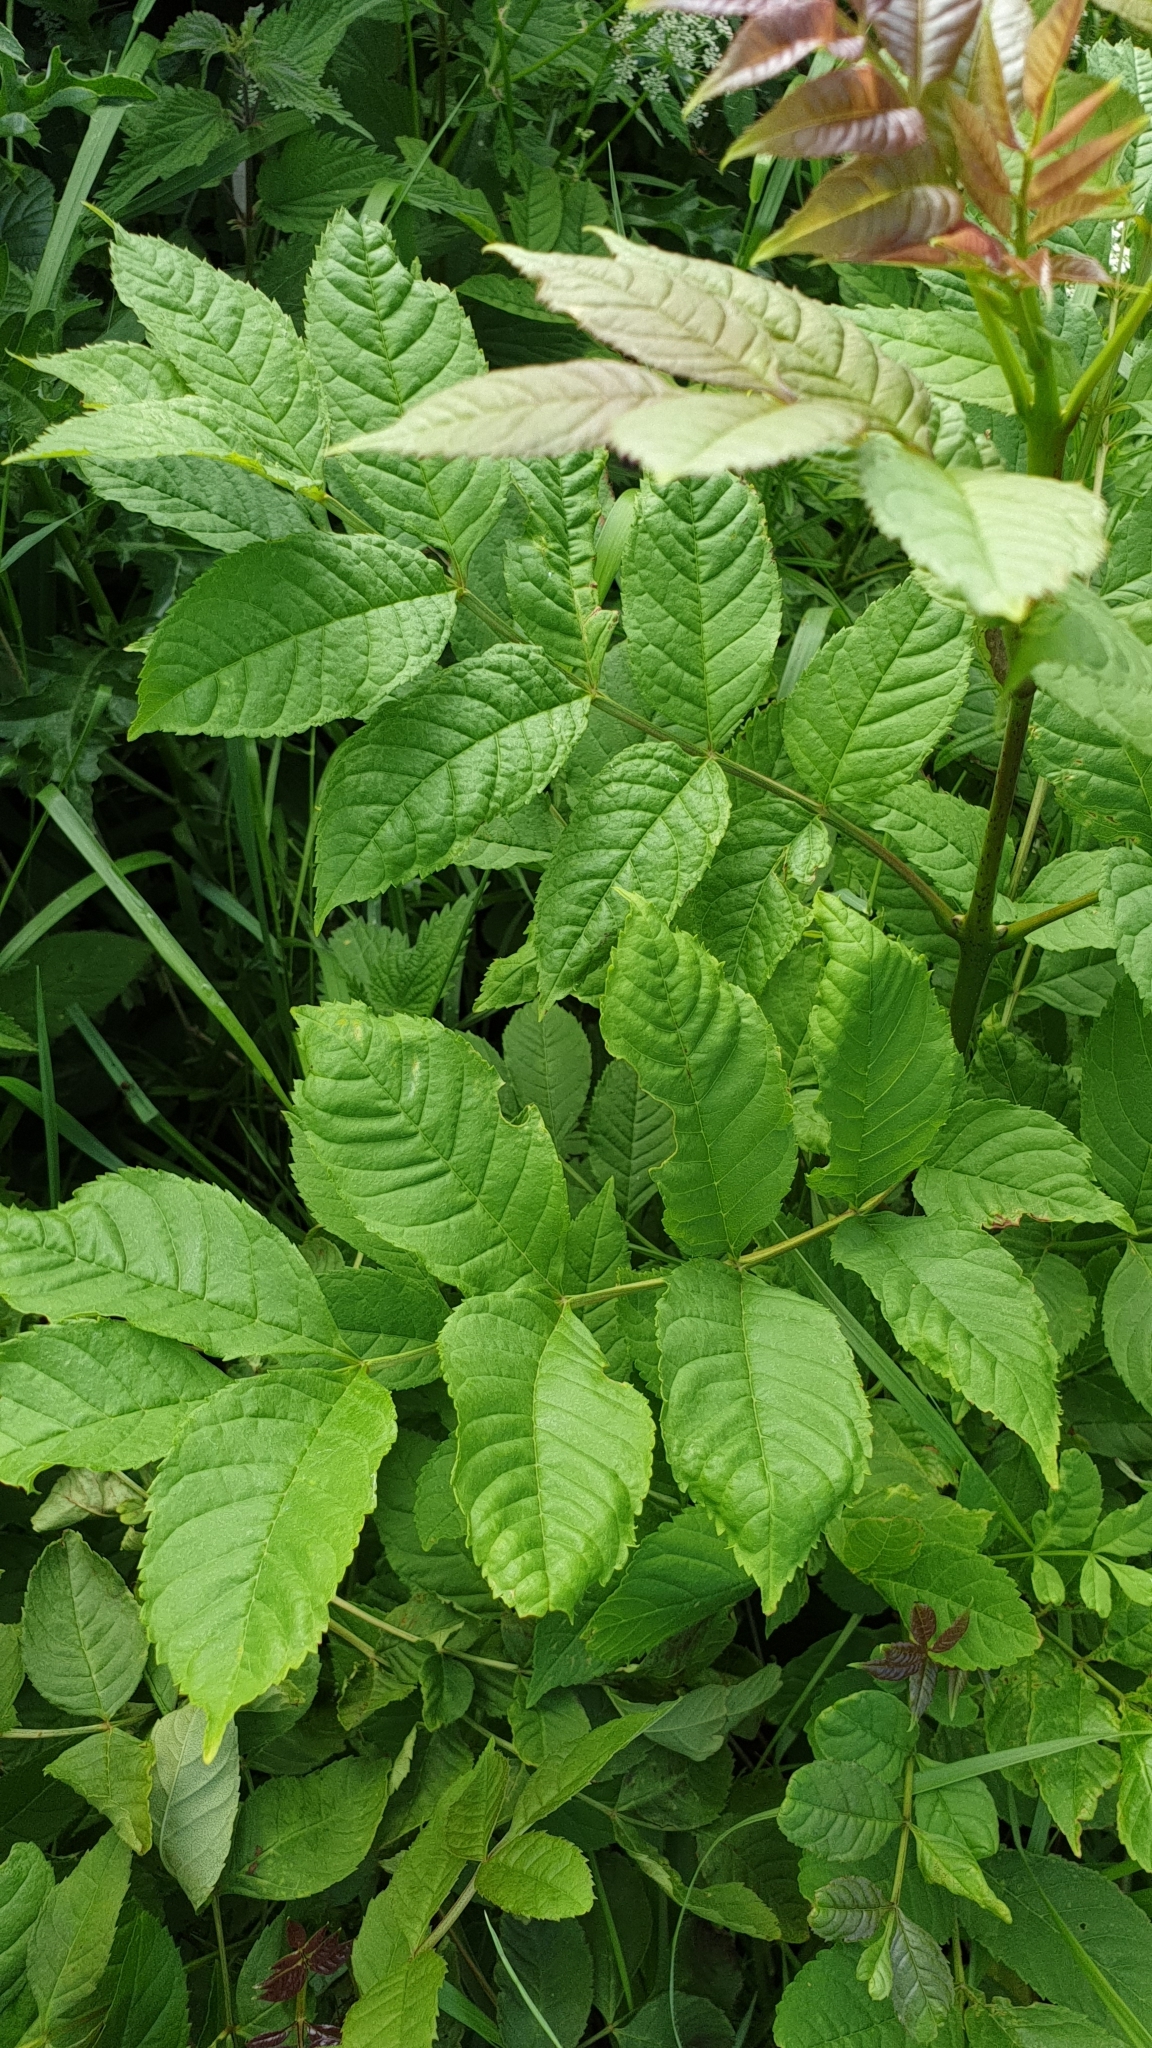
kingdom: Plantae
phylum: Tracheophyta
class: Magnoliopsida
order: Lamiales
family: Oleaceae
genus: Fraxinus
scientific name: Fraxinus excelsior
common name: European ash
